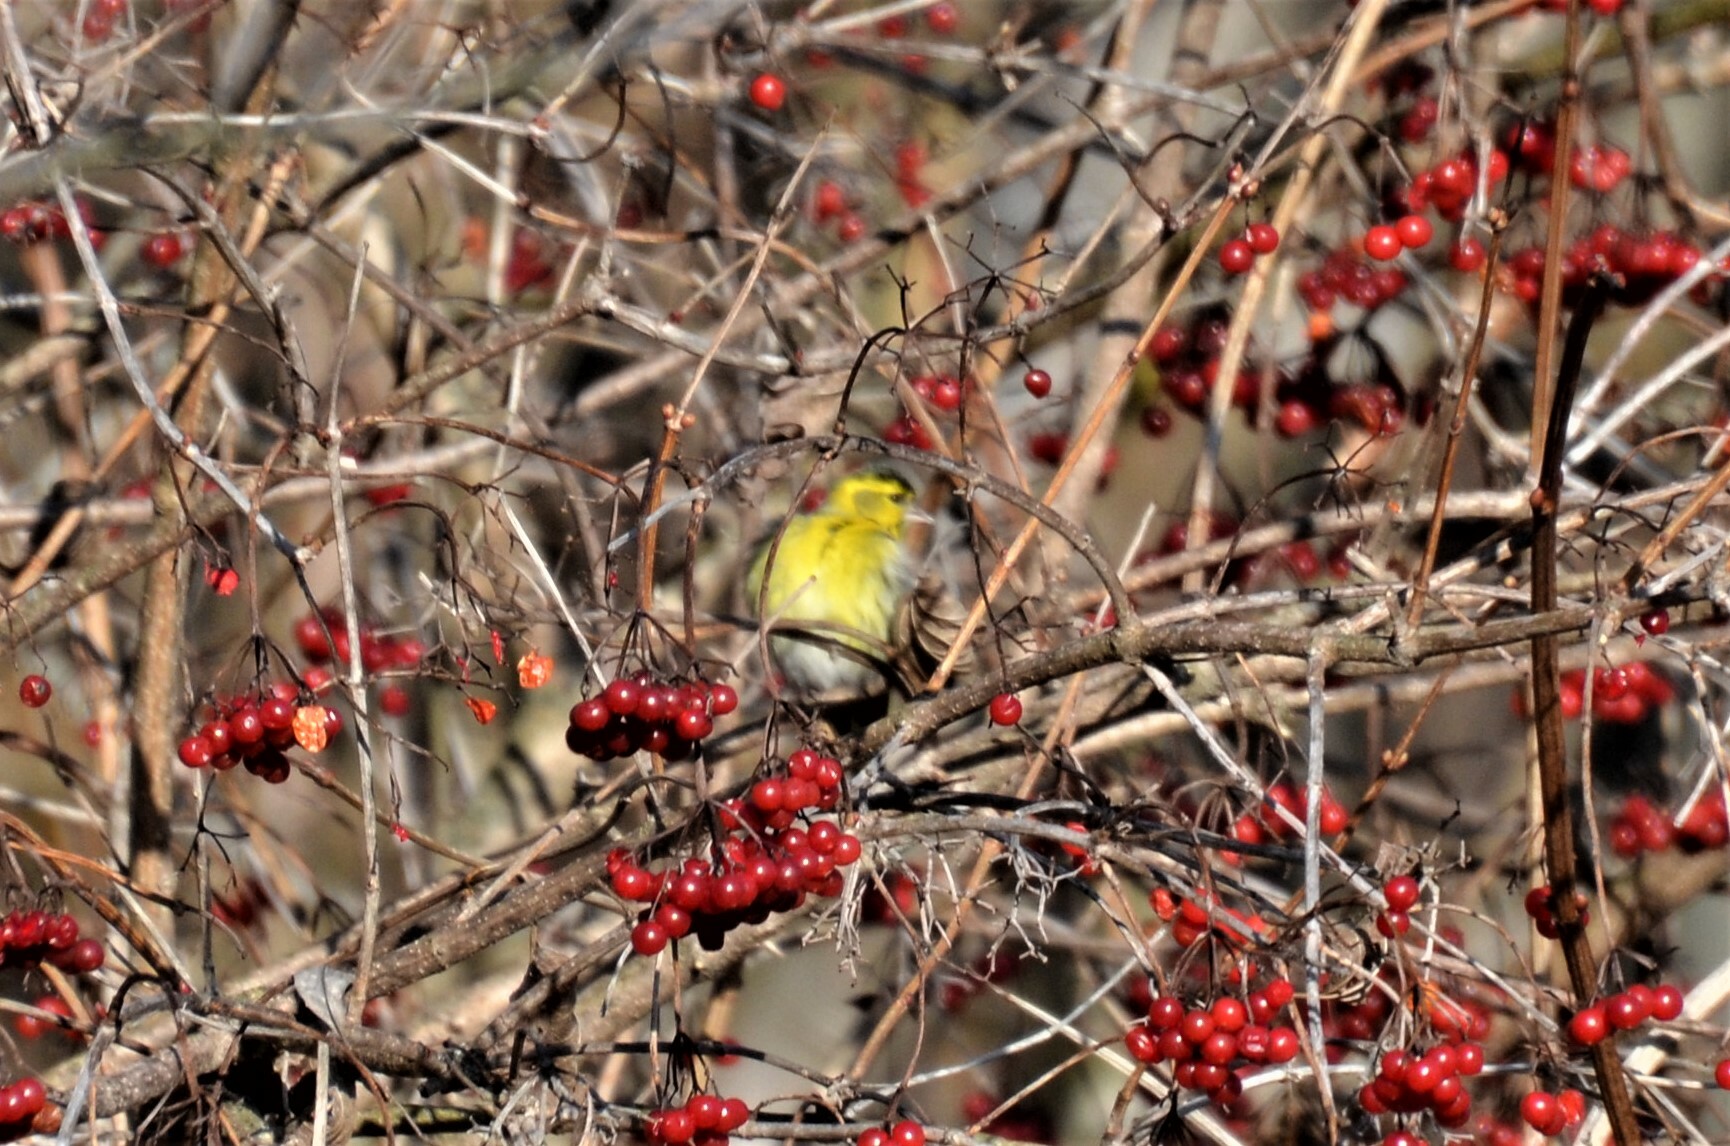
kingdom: Animalia
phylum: Chordata
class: Aves
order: Passeriformes
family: Fringillidae
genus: Spinus
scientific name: Spinus spinus
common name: Eurasian siskin
